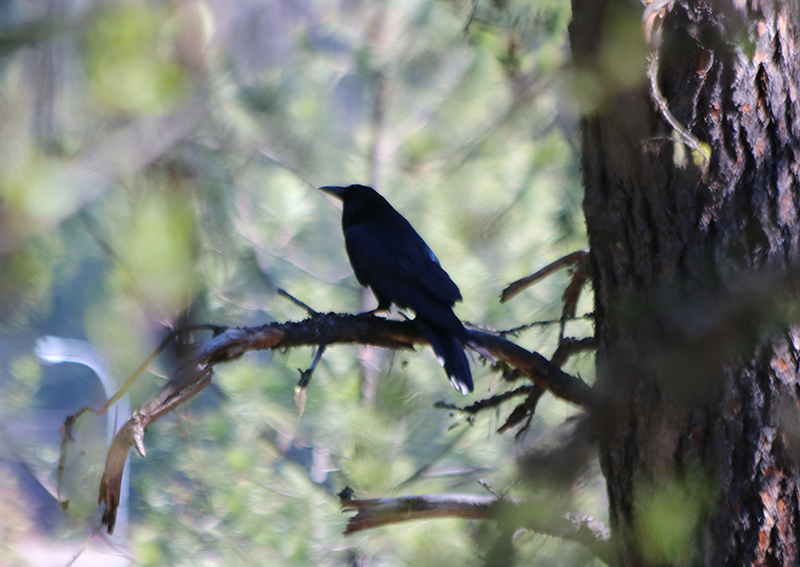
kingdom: Animalia
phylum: Chordata
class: Aves
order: Passeriformes
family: Corvidae
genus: Corvus
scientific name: Corvus corax
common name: Common raven
